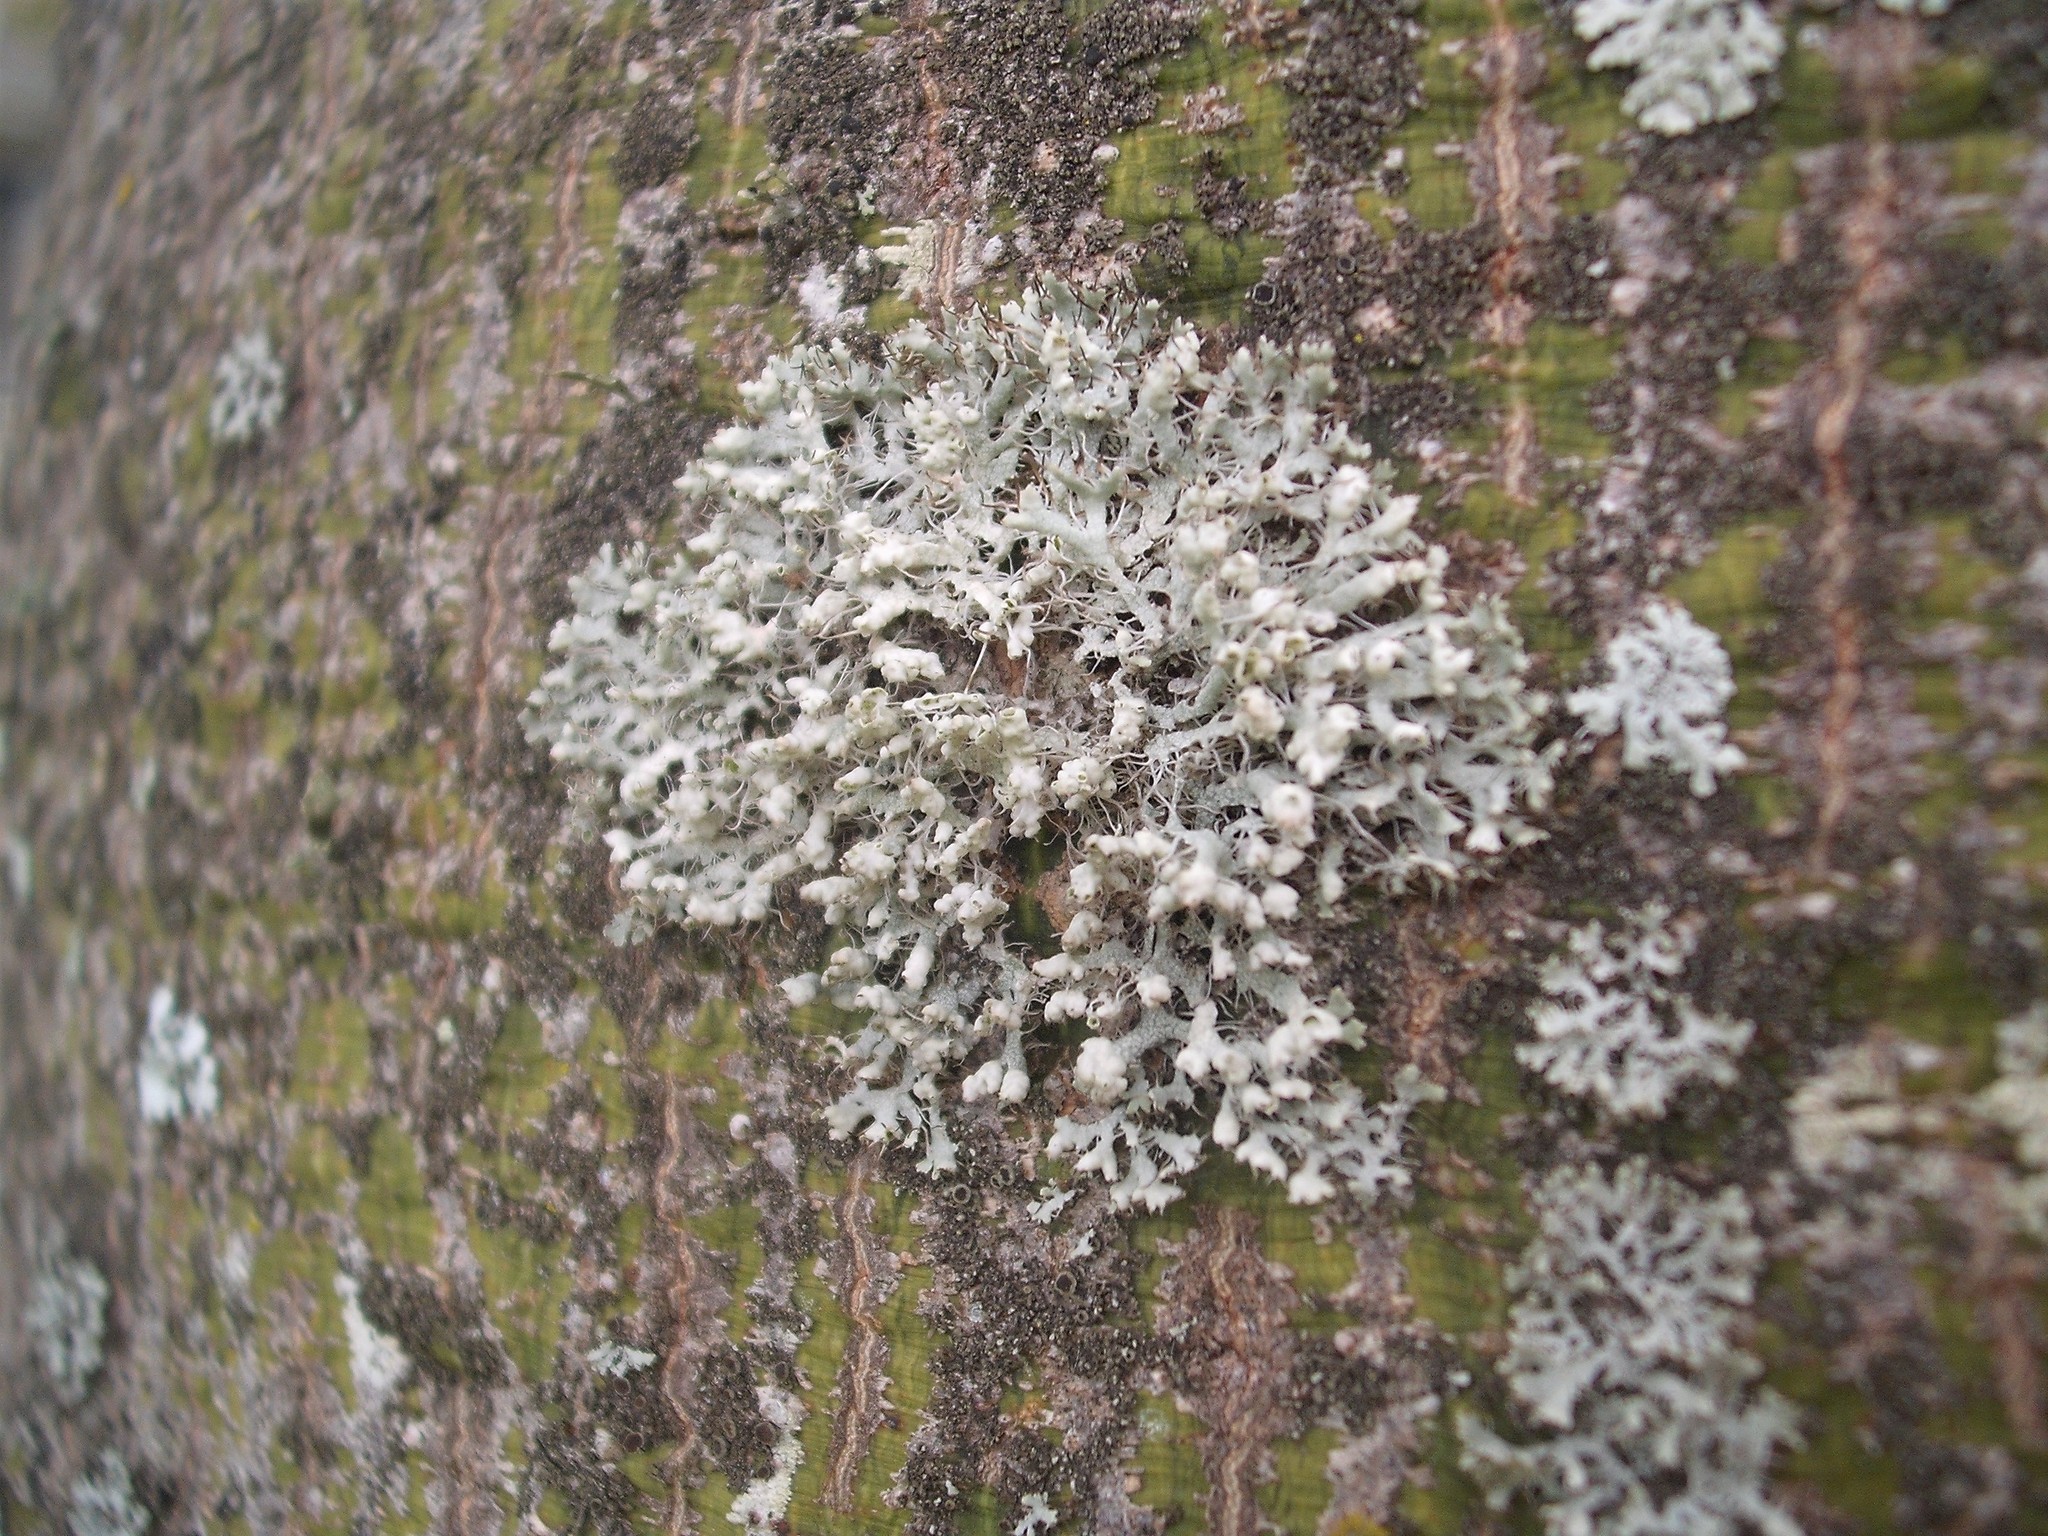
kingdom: Fungi
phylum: Ascomycota
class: Lecanoromycetes
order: Caliciales
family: Physciaceae
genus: Physcia
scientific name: Physcia adscendens
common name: Hooded rosette lichen
